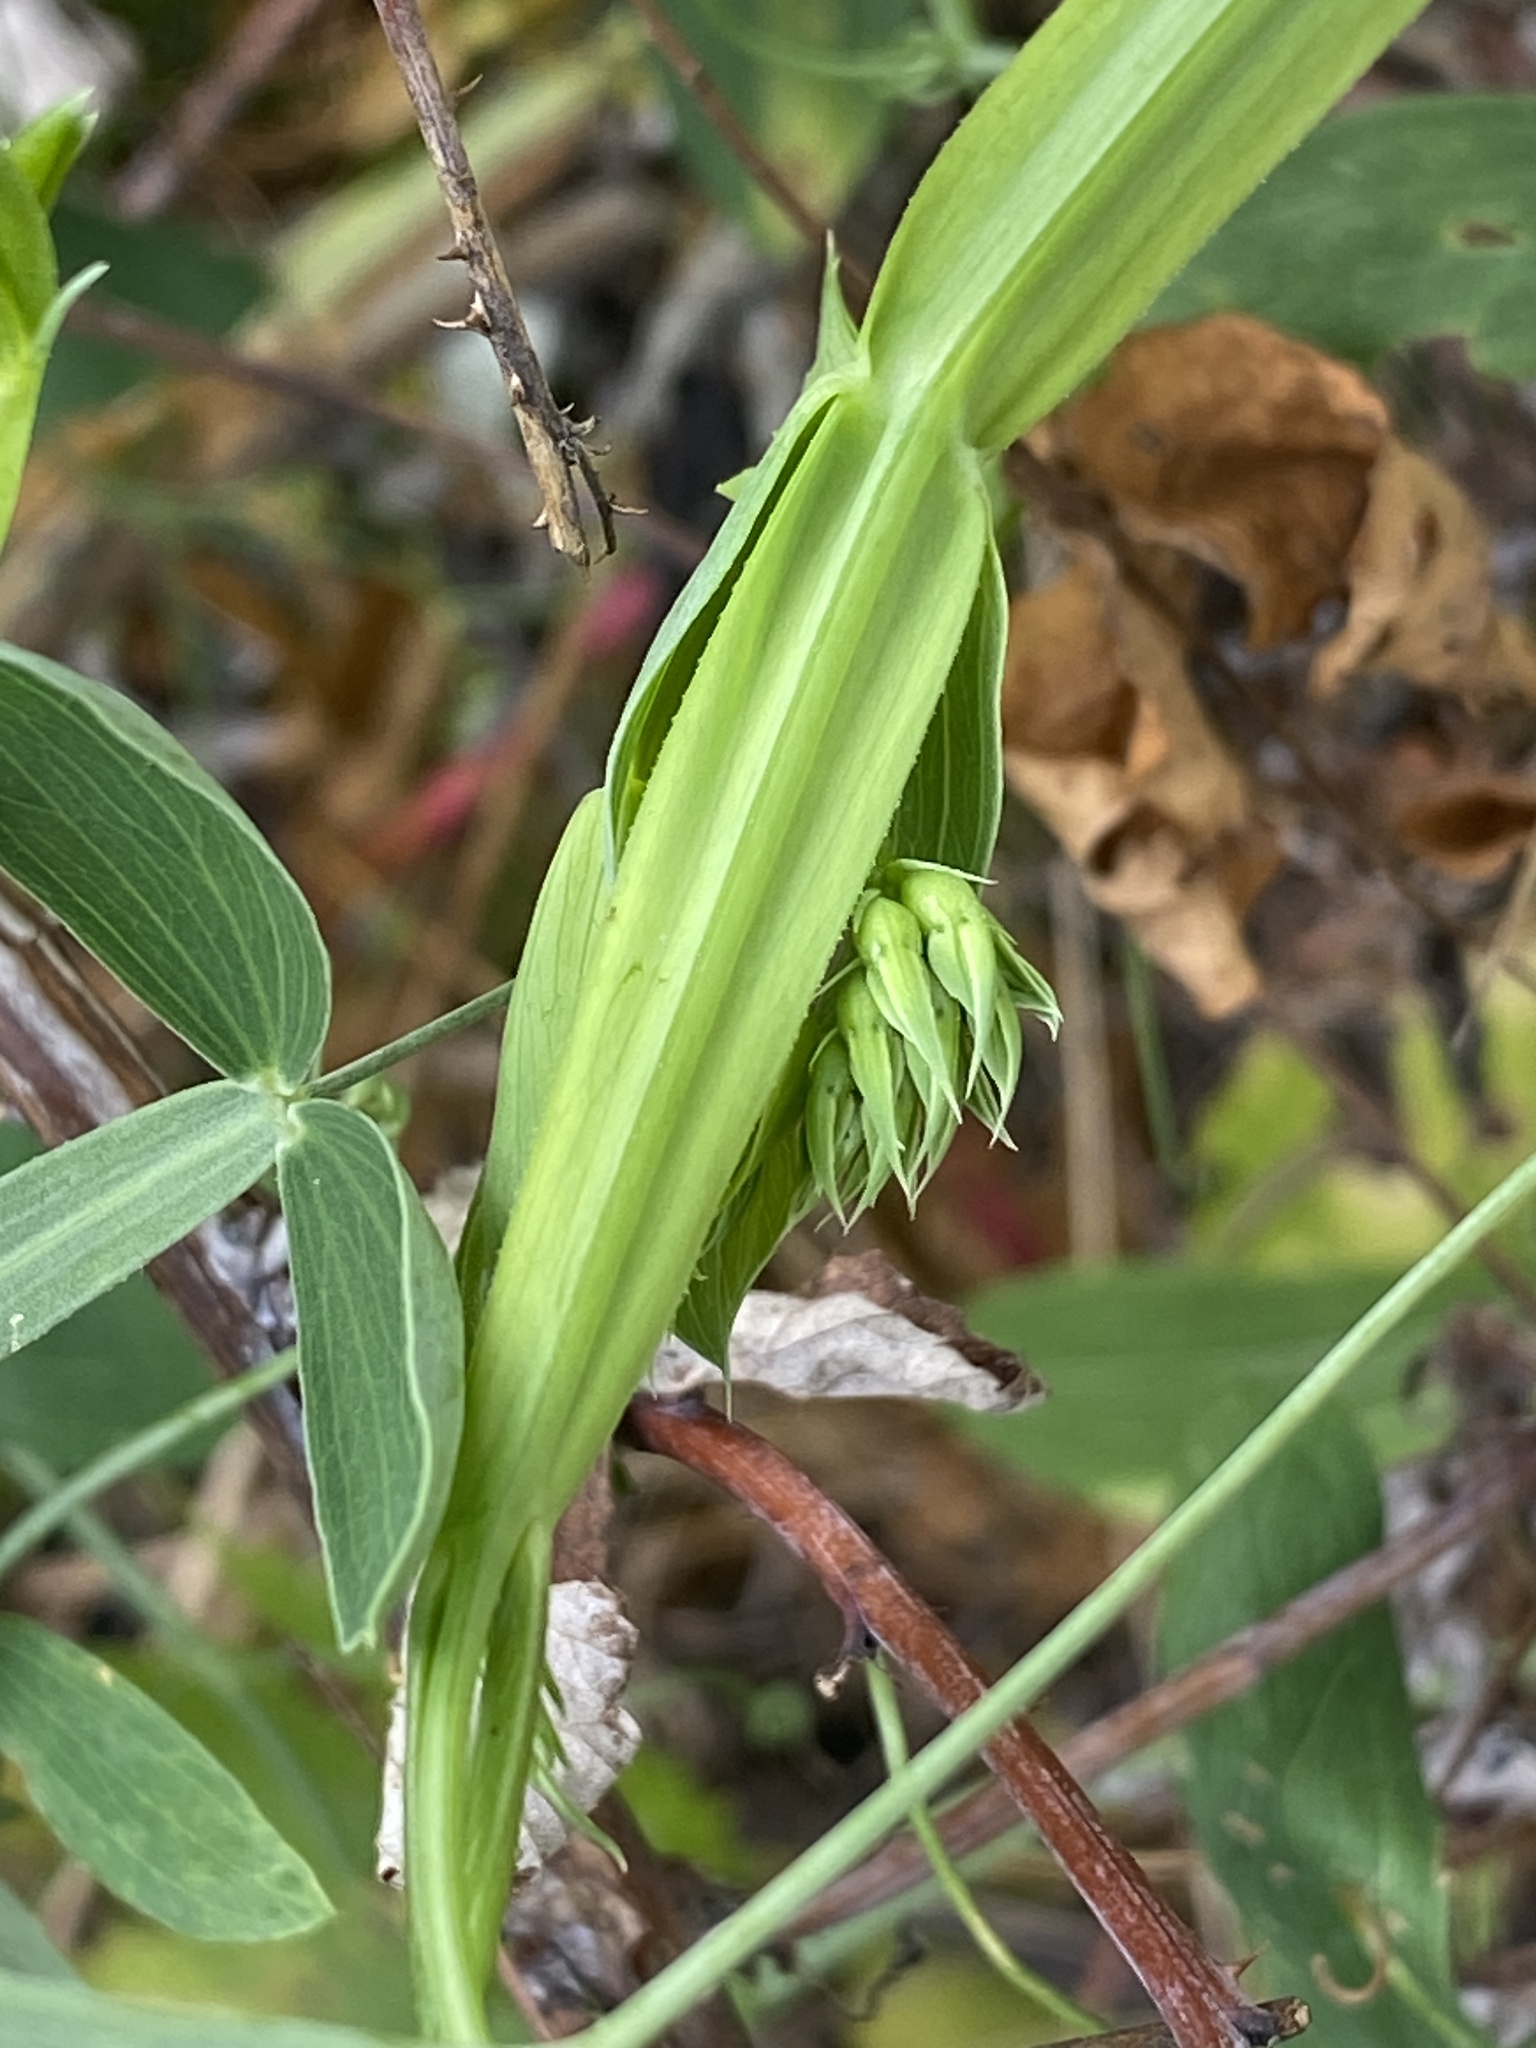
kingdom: Plantae
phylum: Tracheophyta
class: Magnoliopsida
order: Fabales
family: Fabaceae
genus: Lathyrus
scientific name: Lathyrus latifolius
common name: Perennial pea
